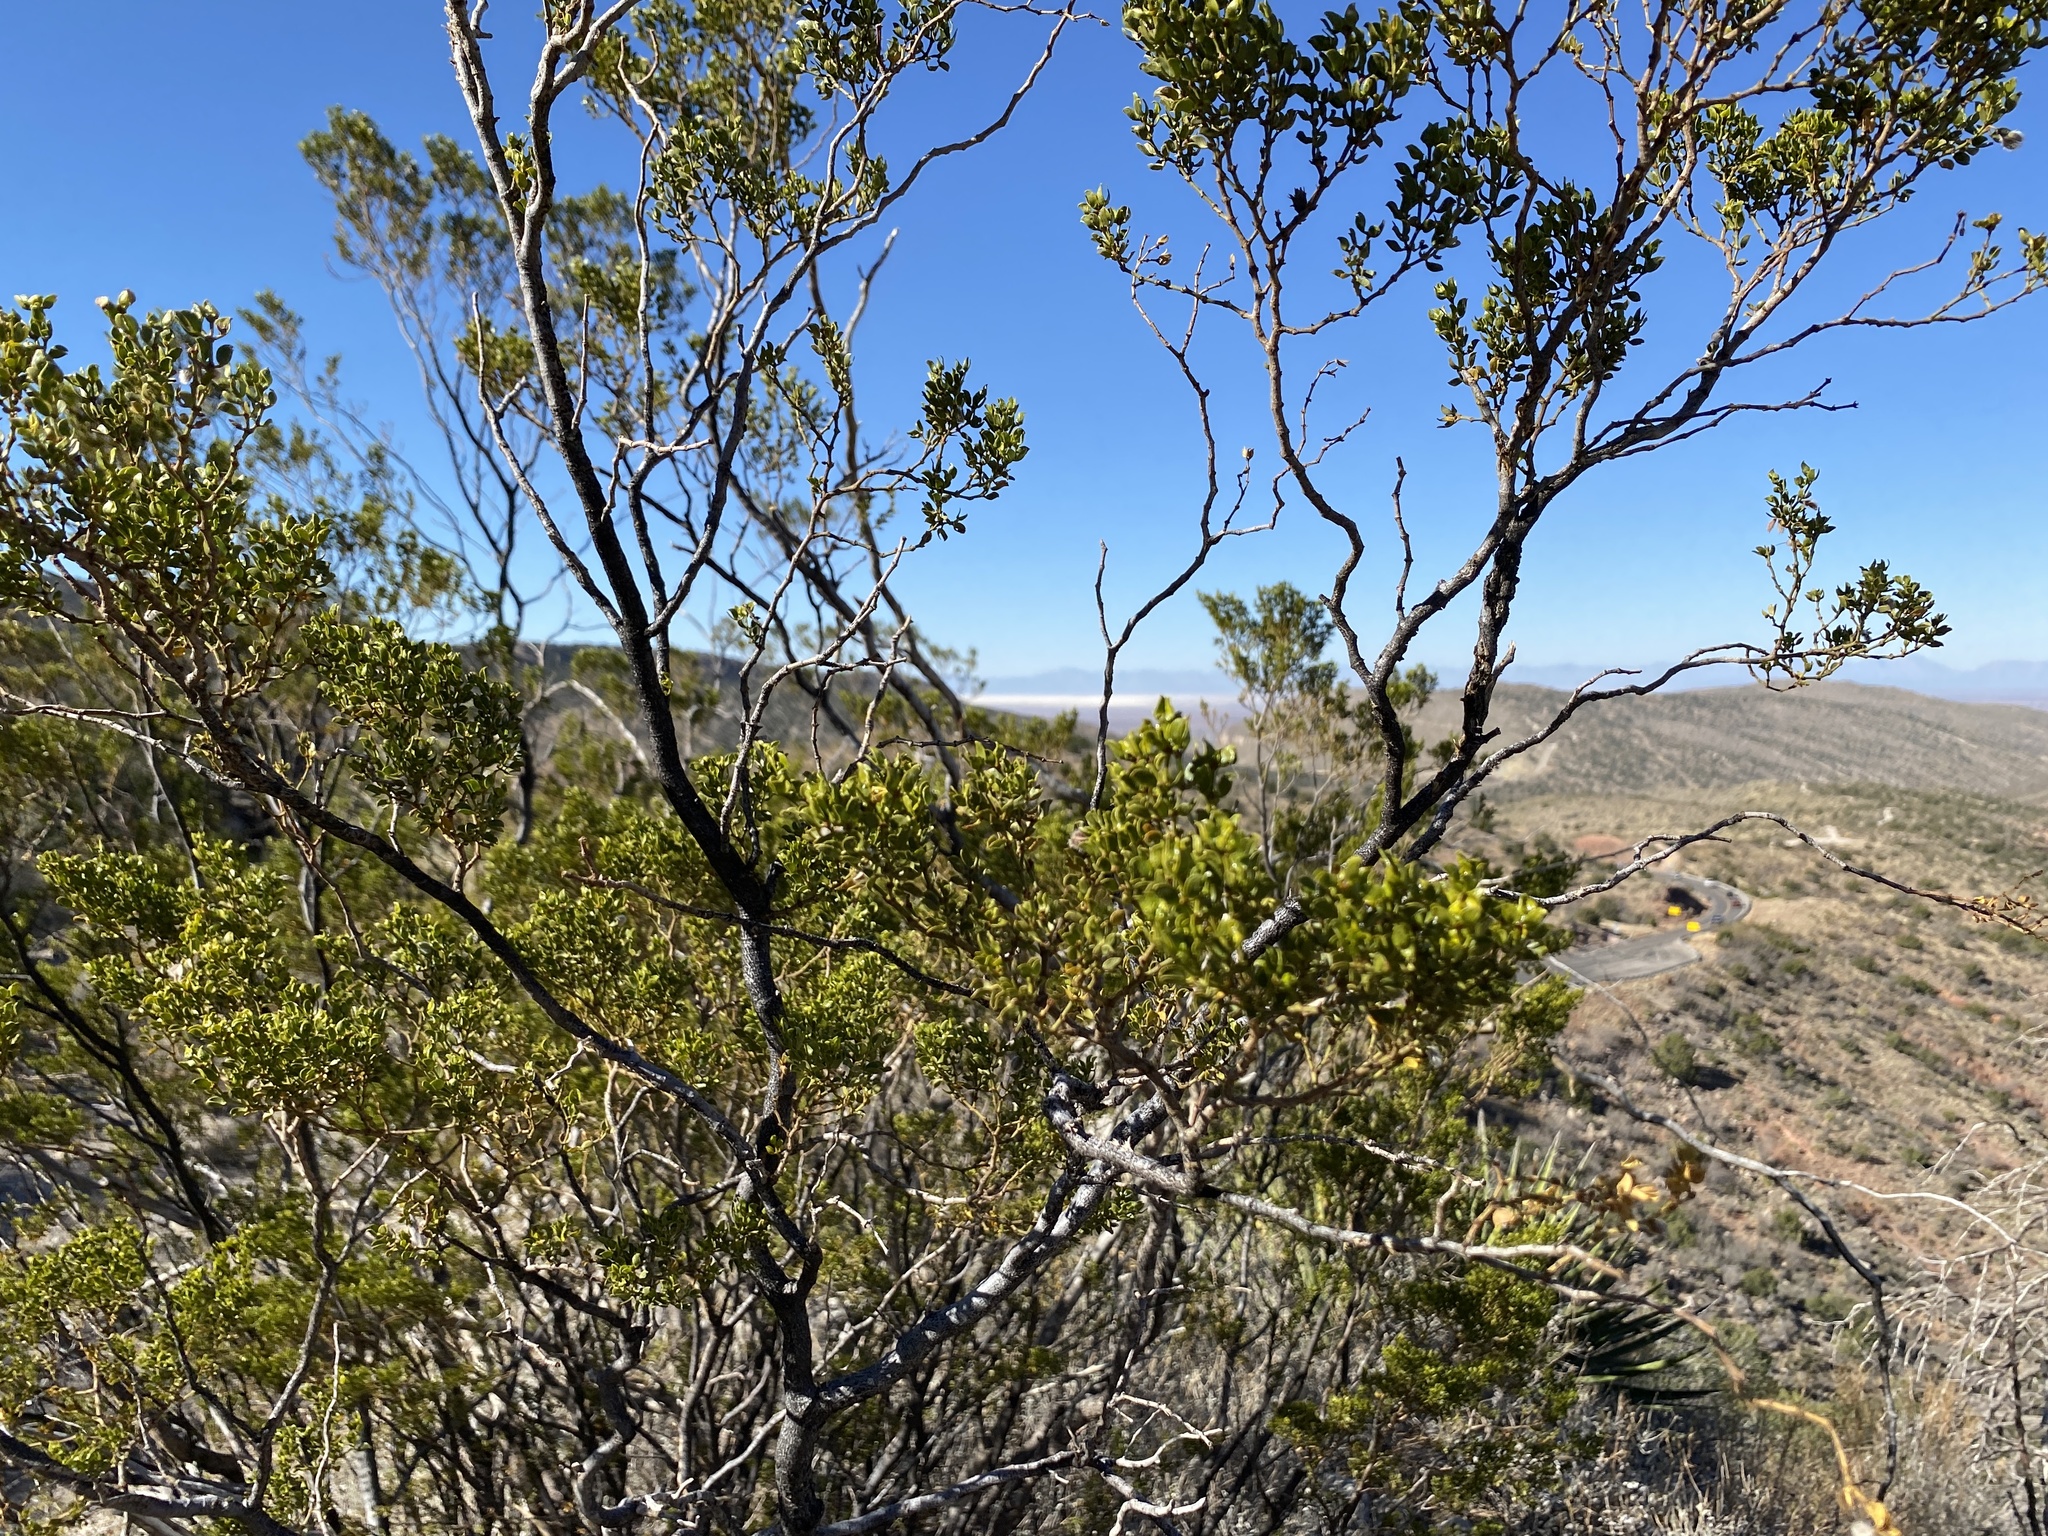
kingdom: Plantae
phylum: Tracheophyta
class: Magnoliopsida
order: Zygophyllales
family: Zygophyllaceae
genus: Larrea
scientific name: Larrea tridentata
